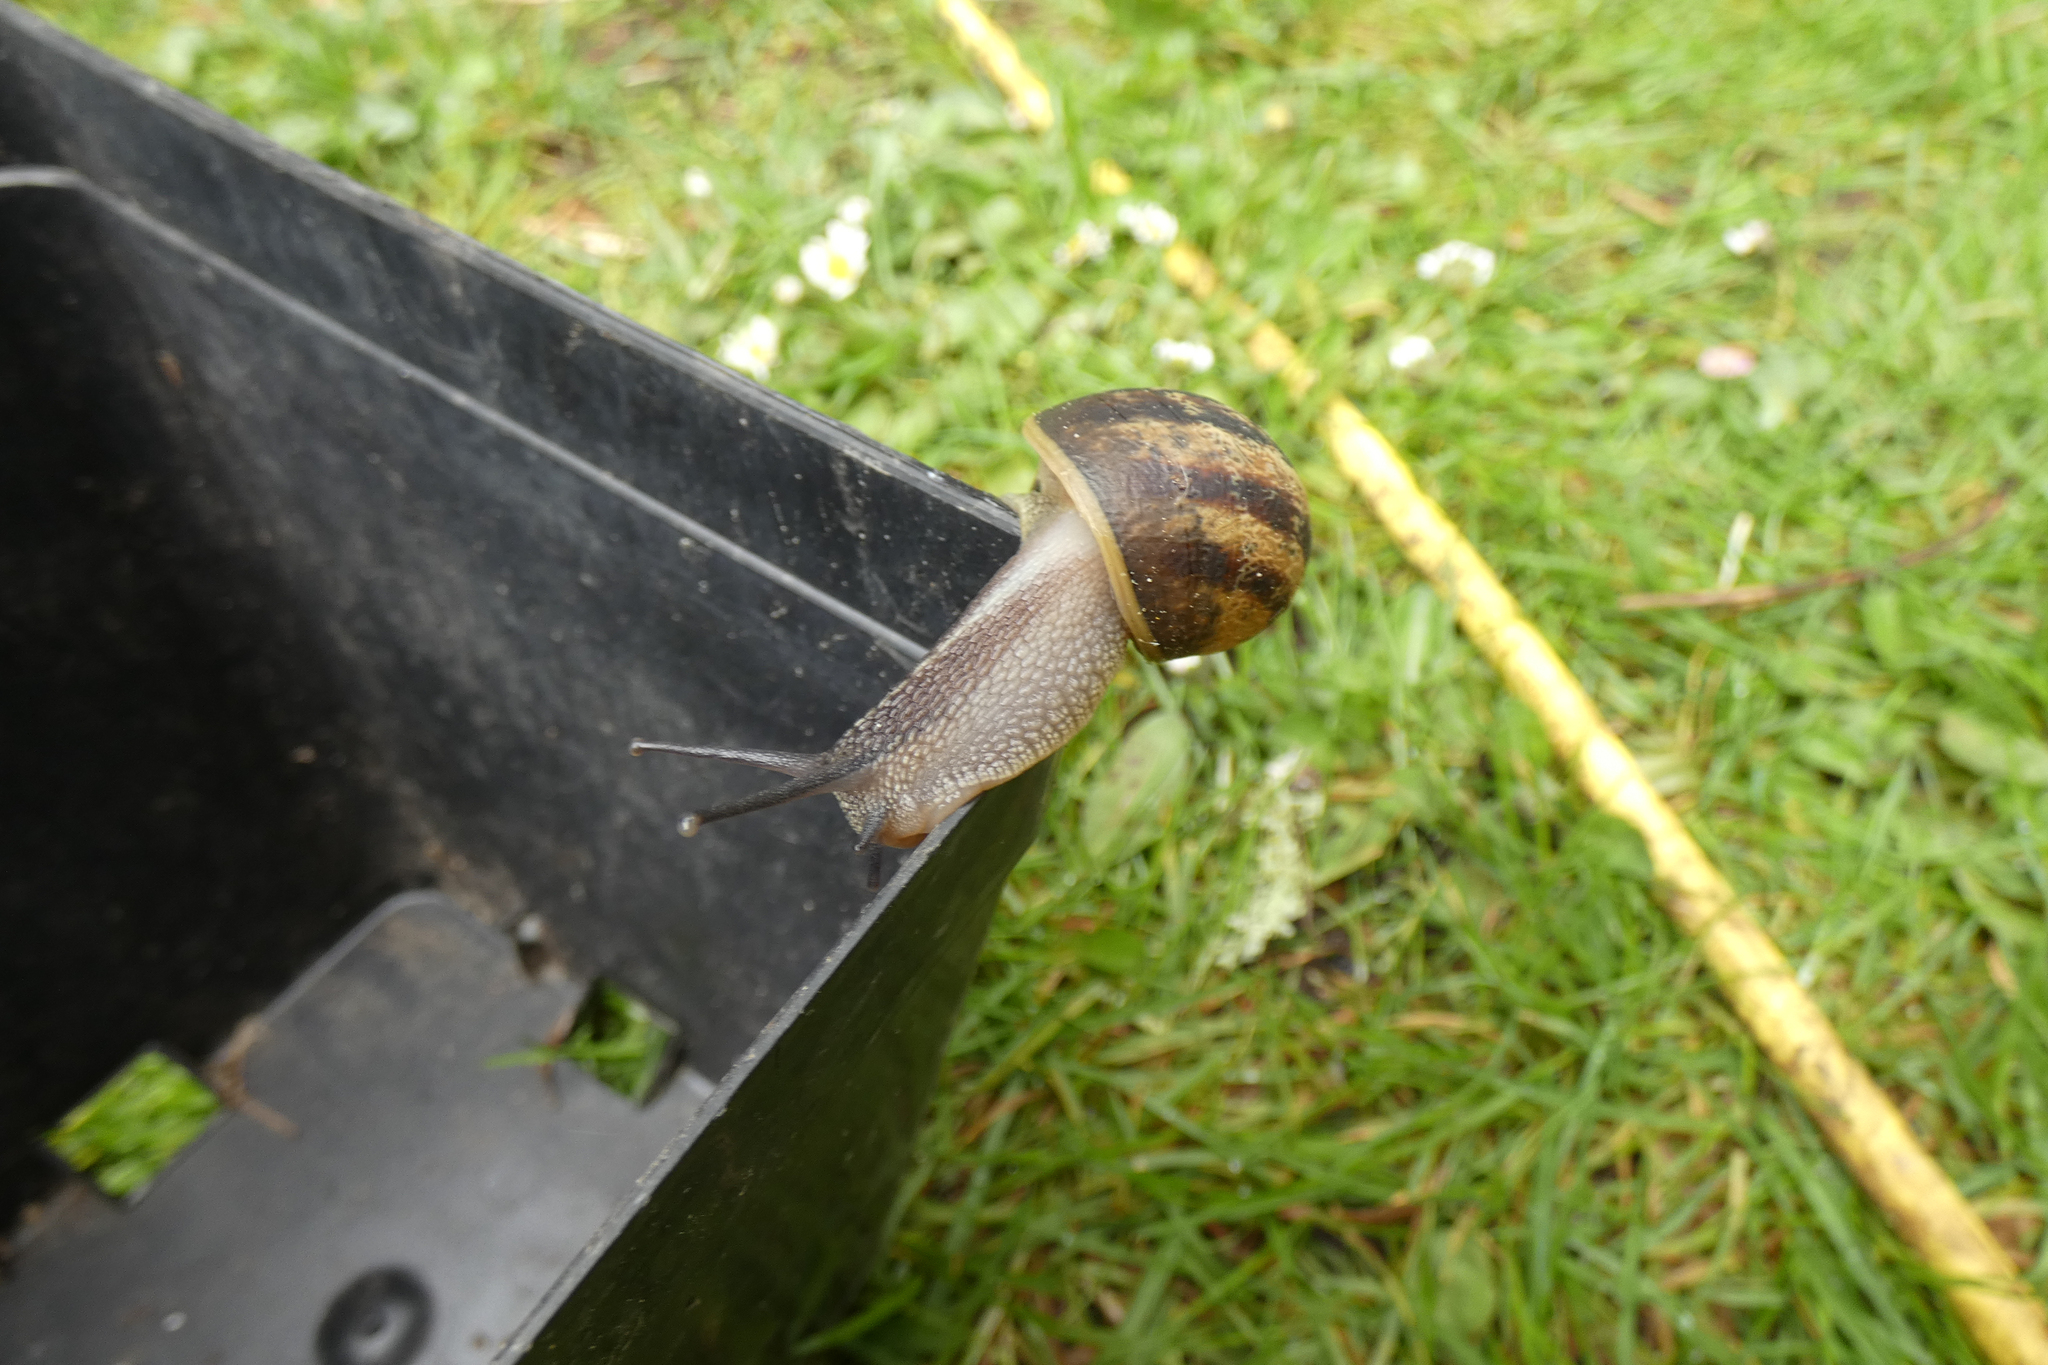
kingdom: Animalia
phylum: Mollusca
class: Gastropoda
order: Stylommatophora
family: Helicidae
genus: Cornu
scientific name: Cornu aspersum
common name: Brown garden snail
